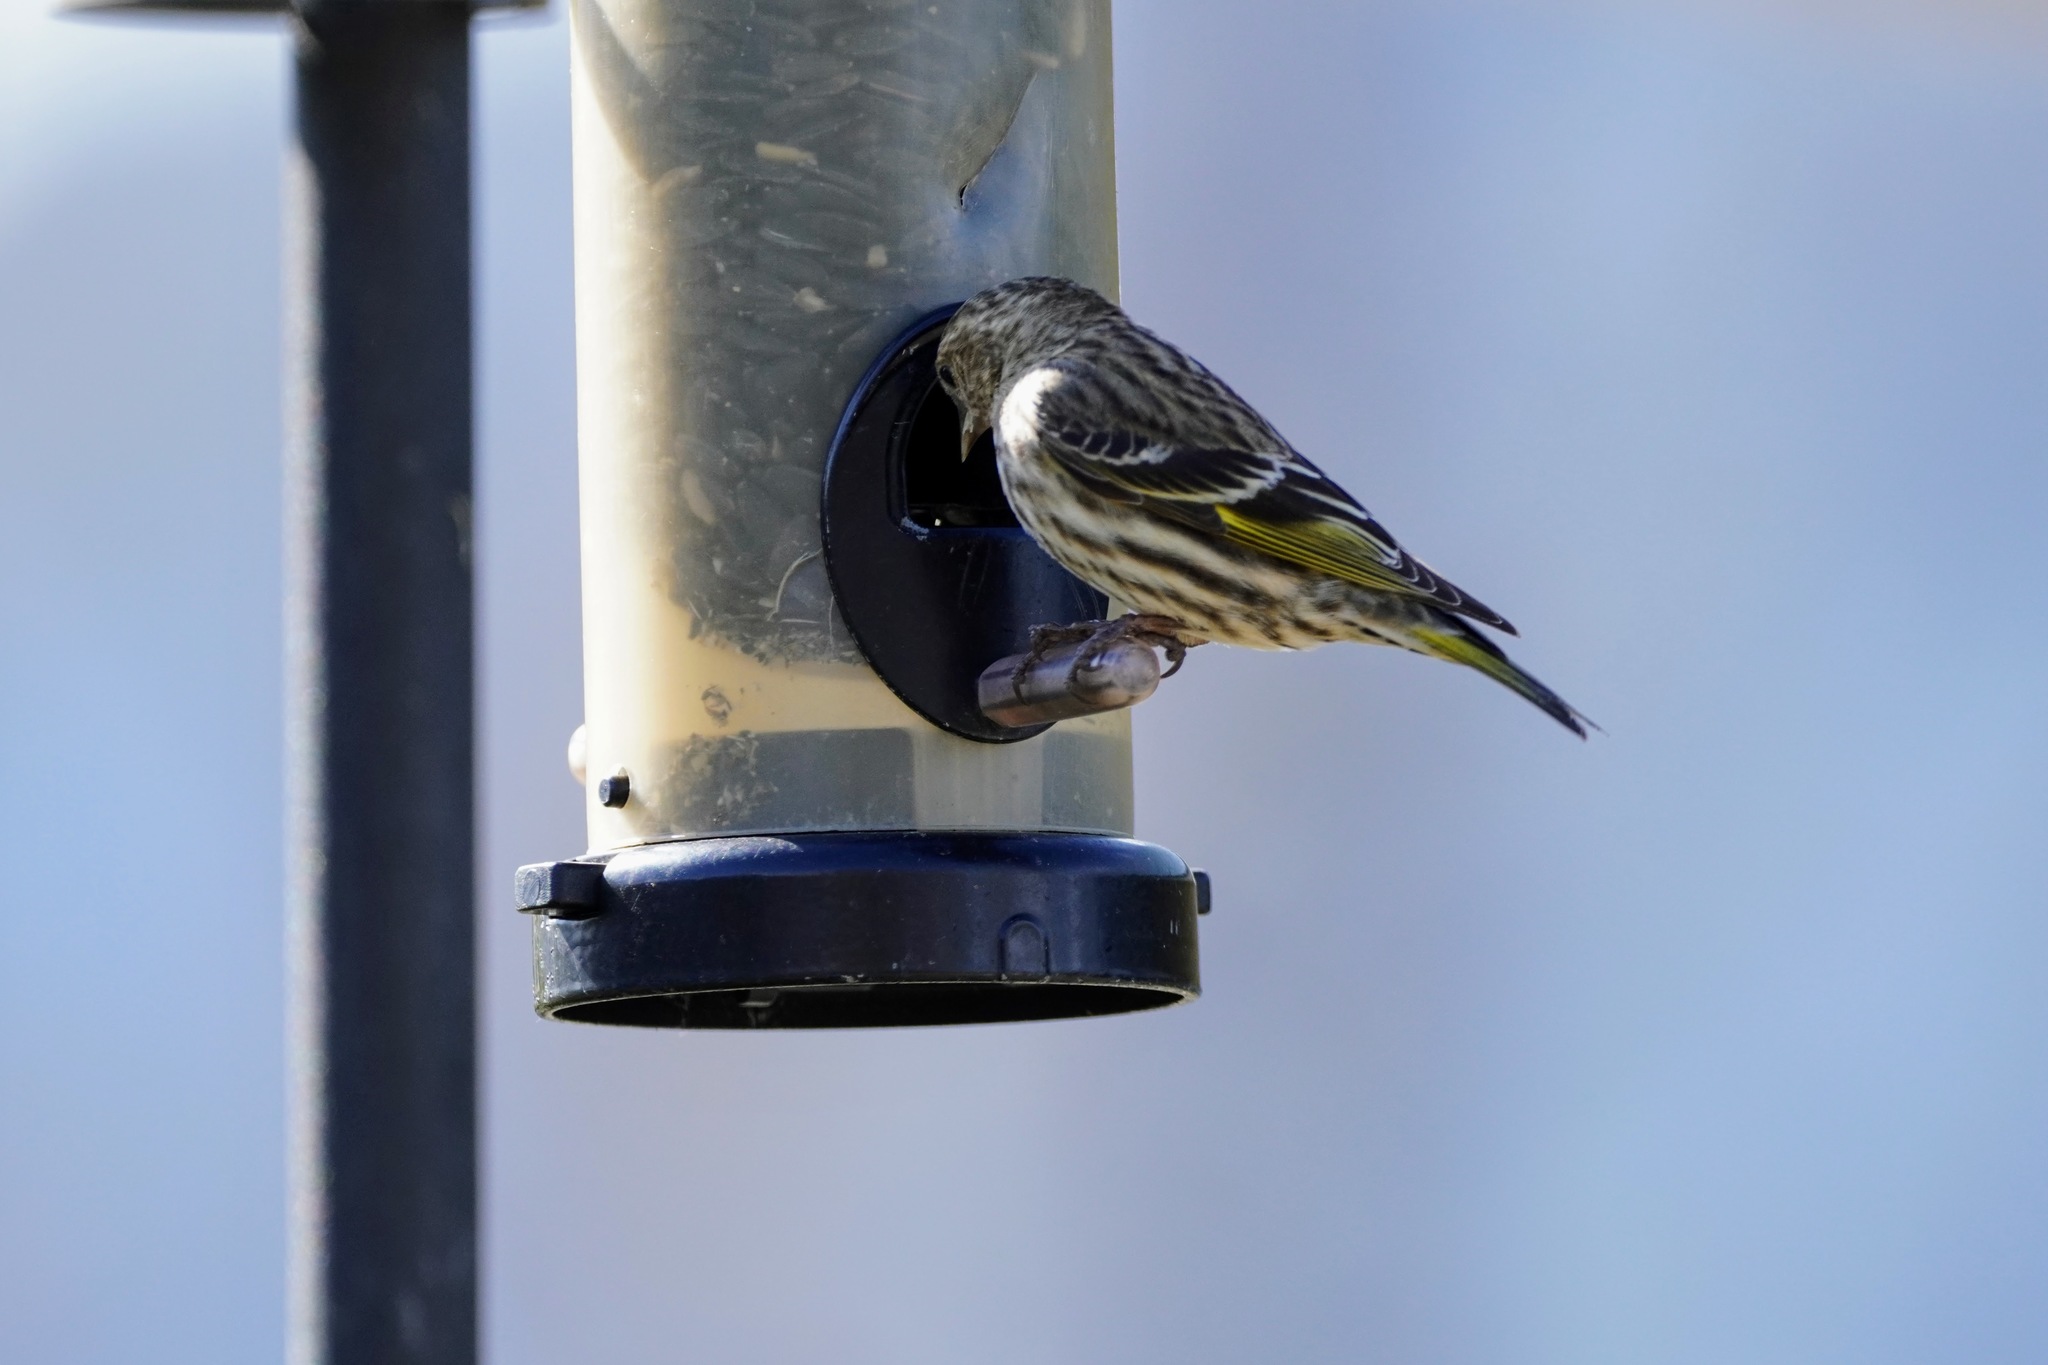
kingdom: Animalia
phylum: Chordata
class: Aves
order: Passeriformes
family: Fringillidae
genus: Spinus
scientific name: Spinus pinus
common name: Pine siskin
